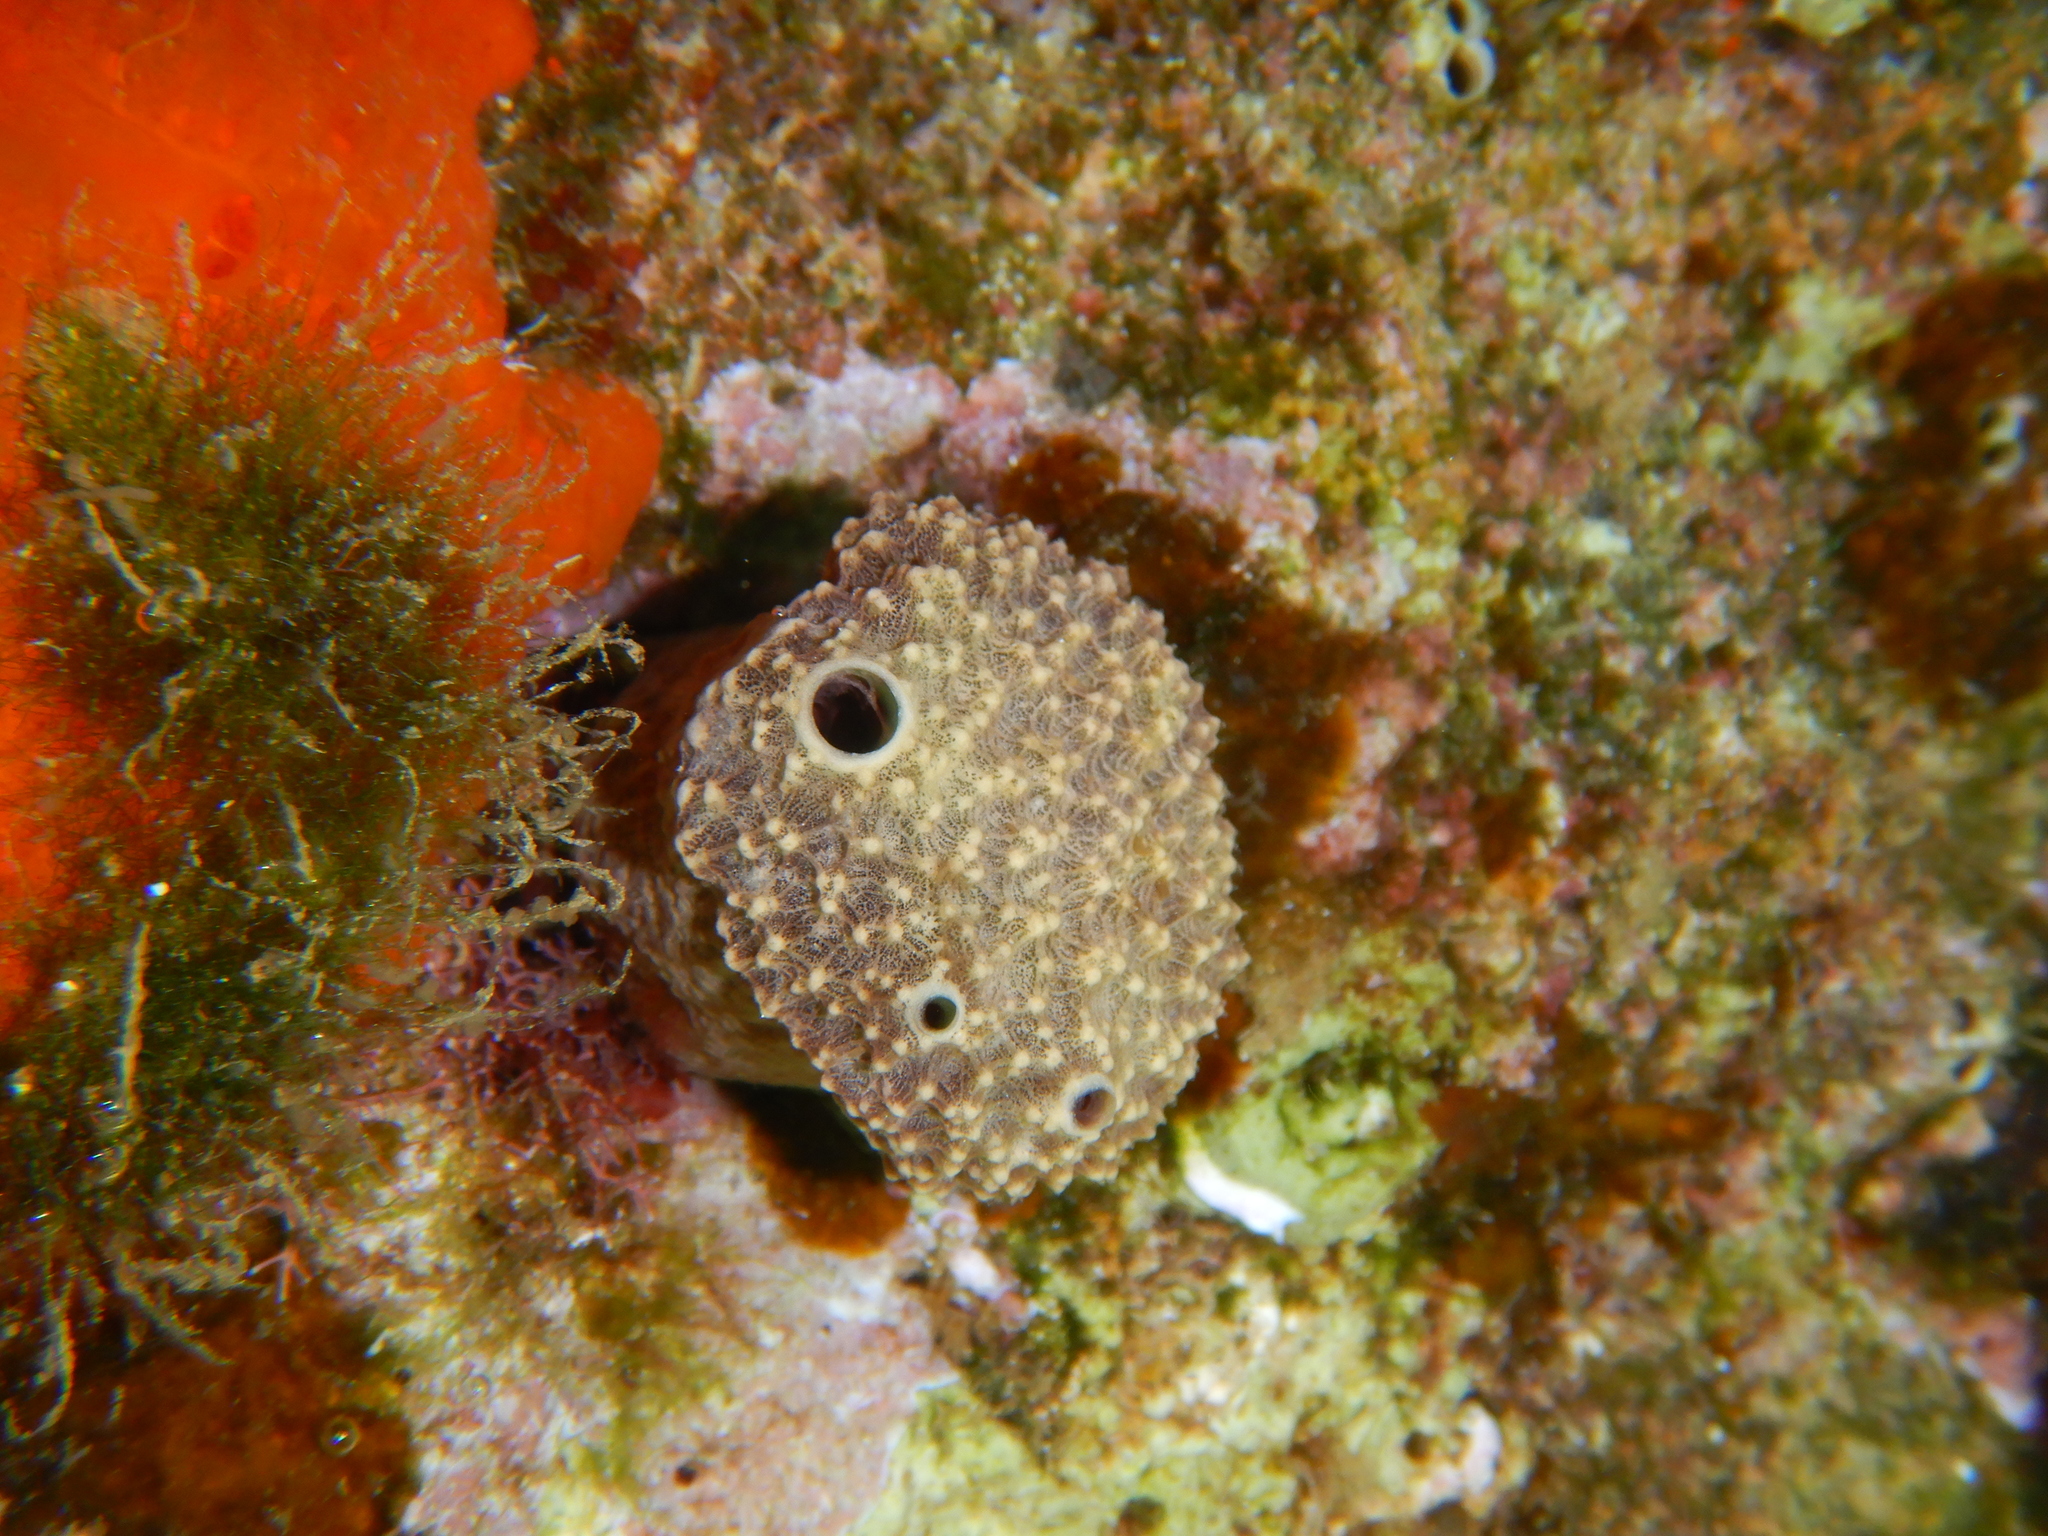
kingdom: Animalia
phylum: Porifera
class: Demospongiae
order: Dictyoceratida
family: Irciniidae
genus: Ircinia
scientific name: Ircinia variabilis
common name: Variable loggerhead sponge
